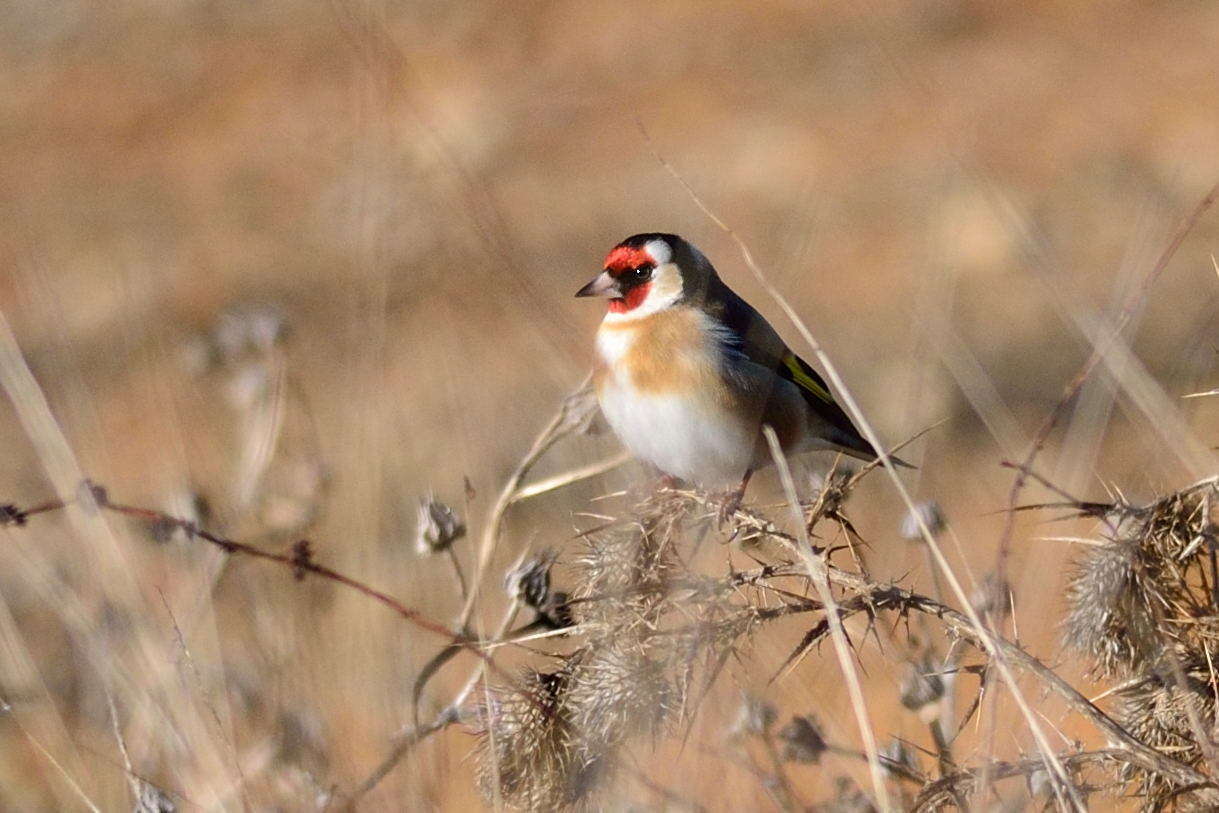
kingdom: Animalia
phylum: Chordata
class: Aves
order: Passeriformes
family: Fringillidae
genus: Carduelis
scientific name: Carduelis carduelis
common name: European goldfinch
